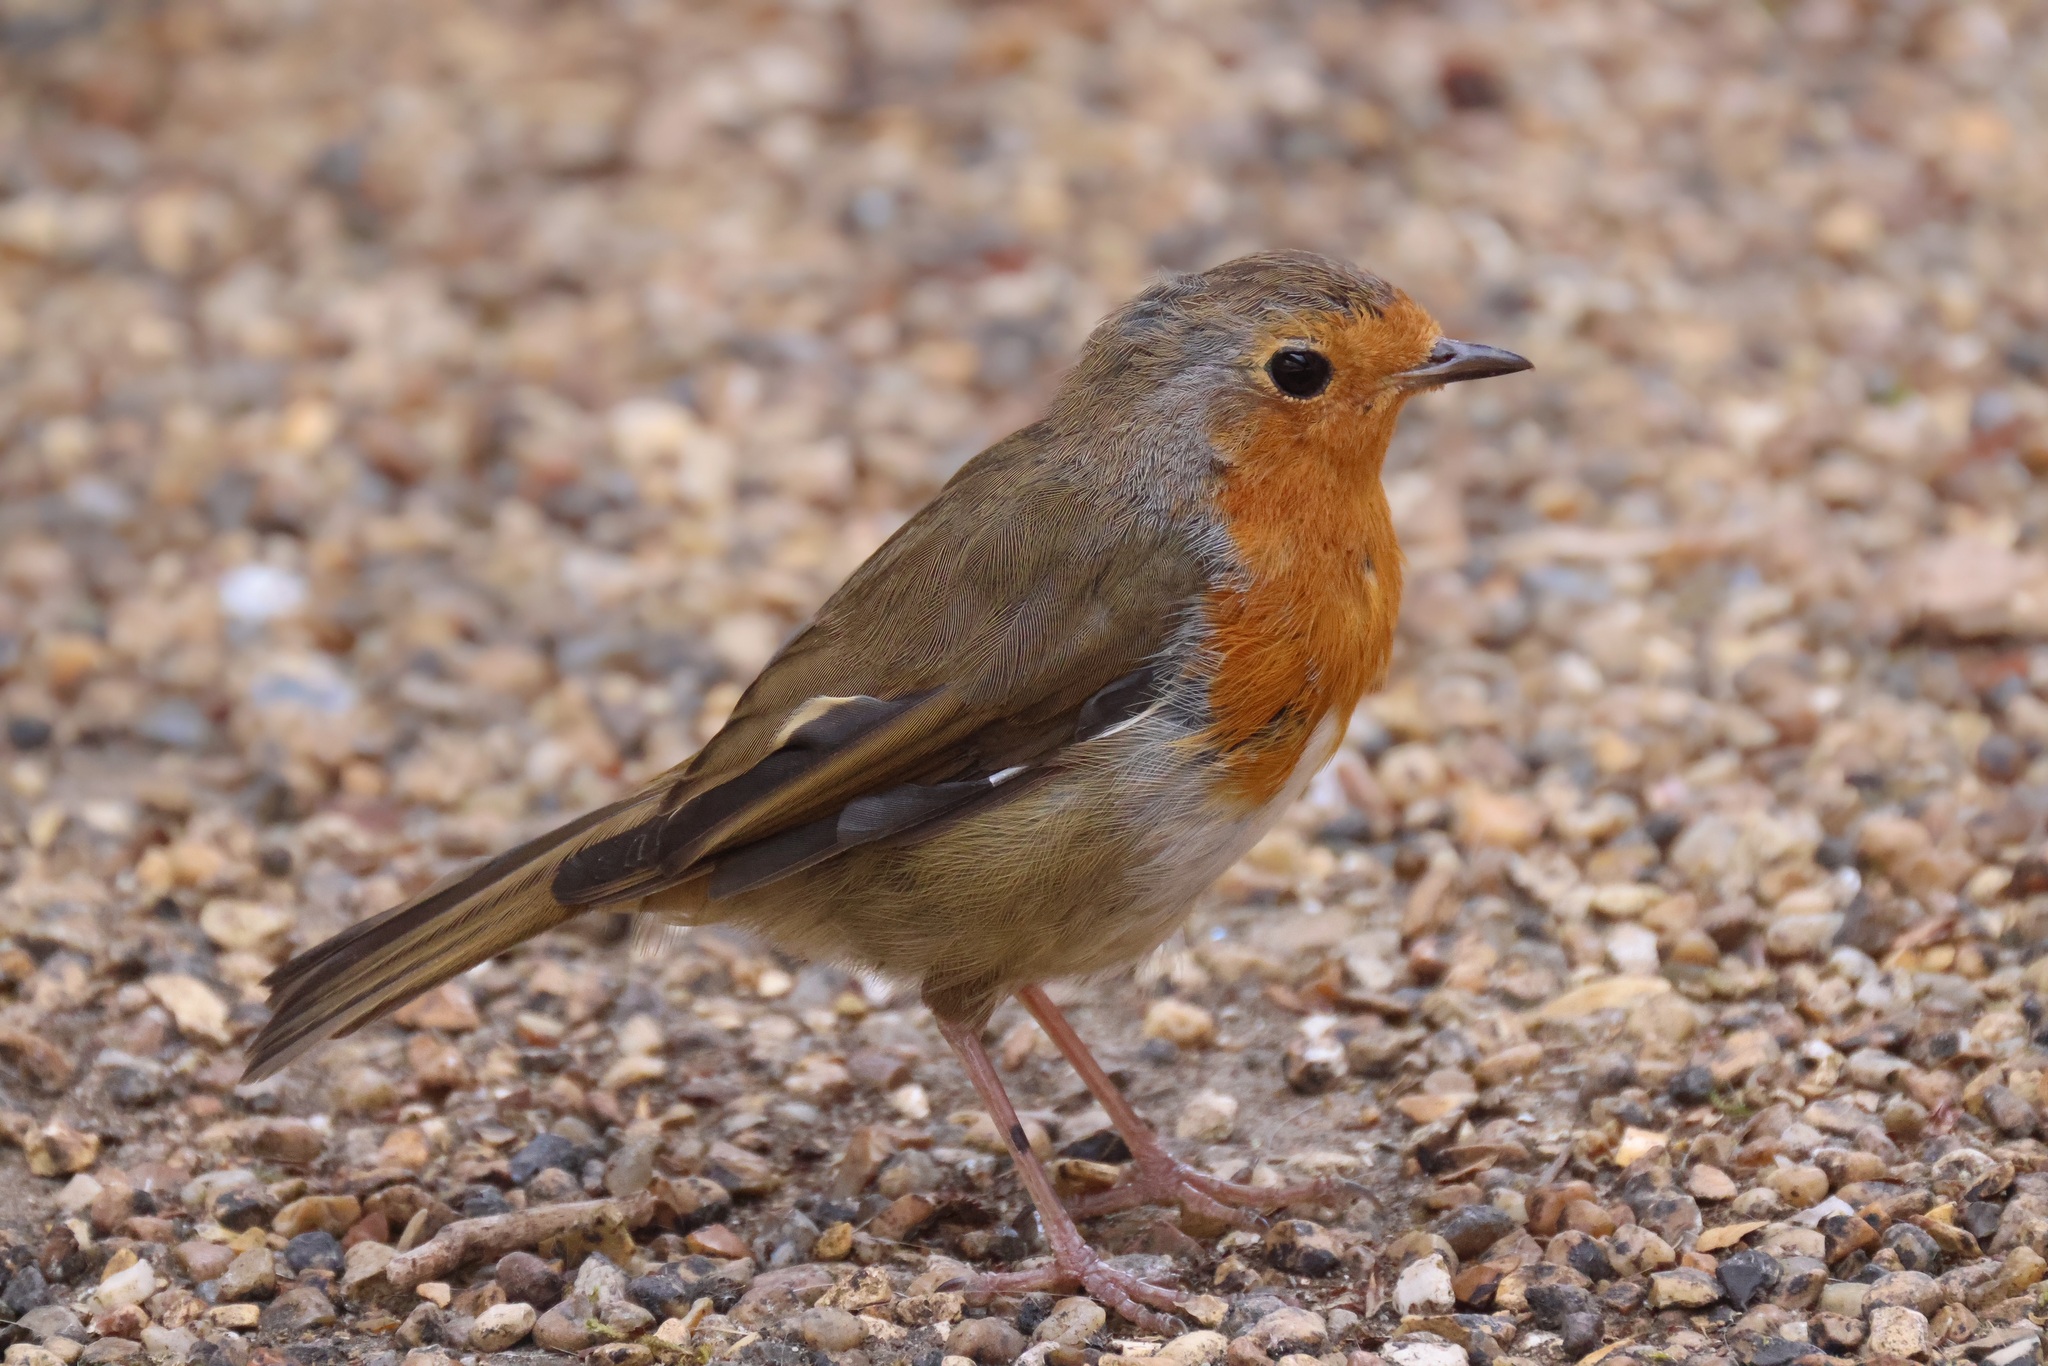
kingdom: Animalia
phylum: Chordata
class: Aves
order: Passeriformes
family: Muscicapidae
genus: Erithacus
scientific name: Erithacus rubecula
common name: European robin
